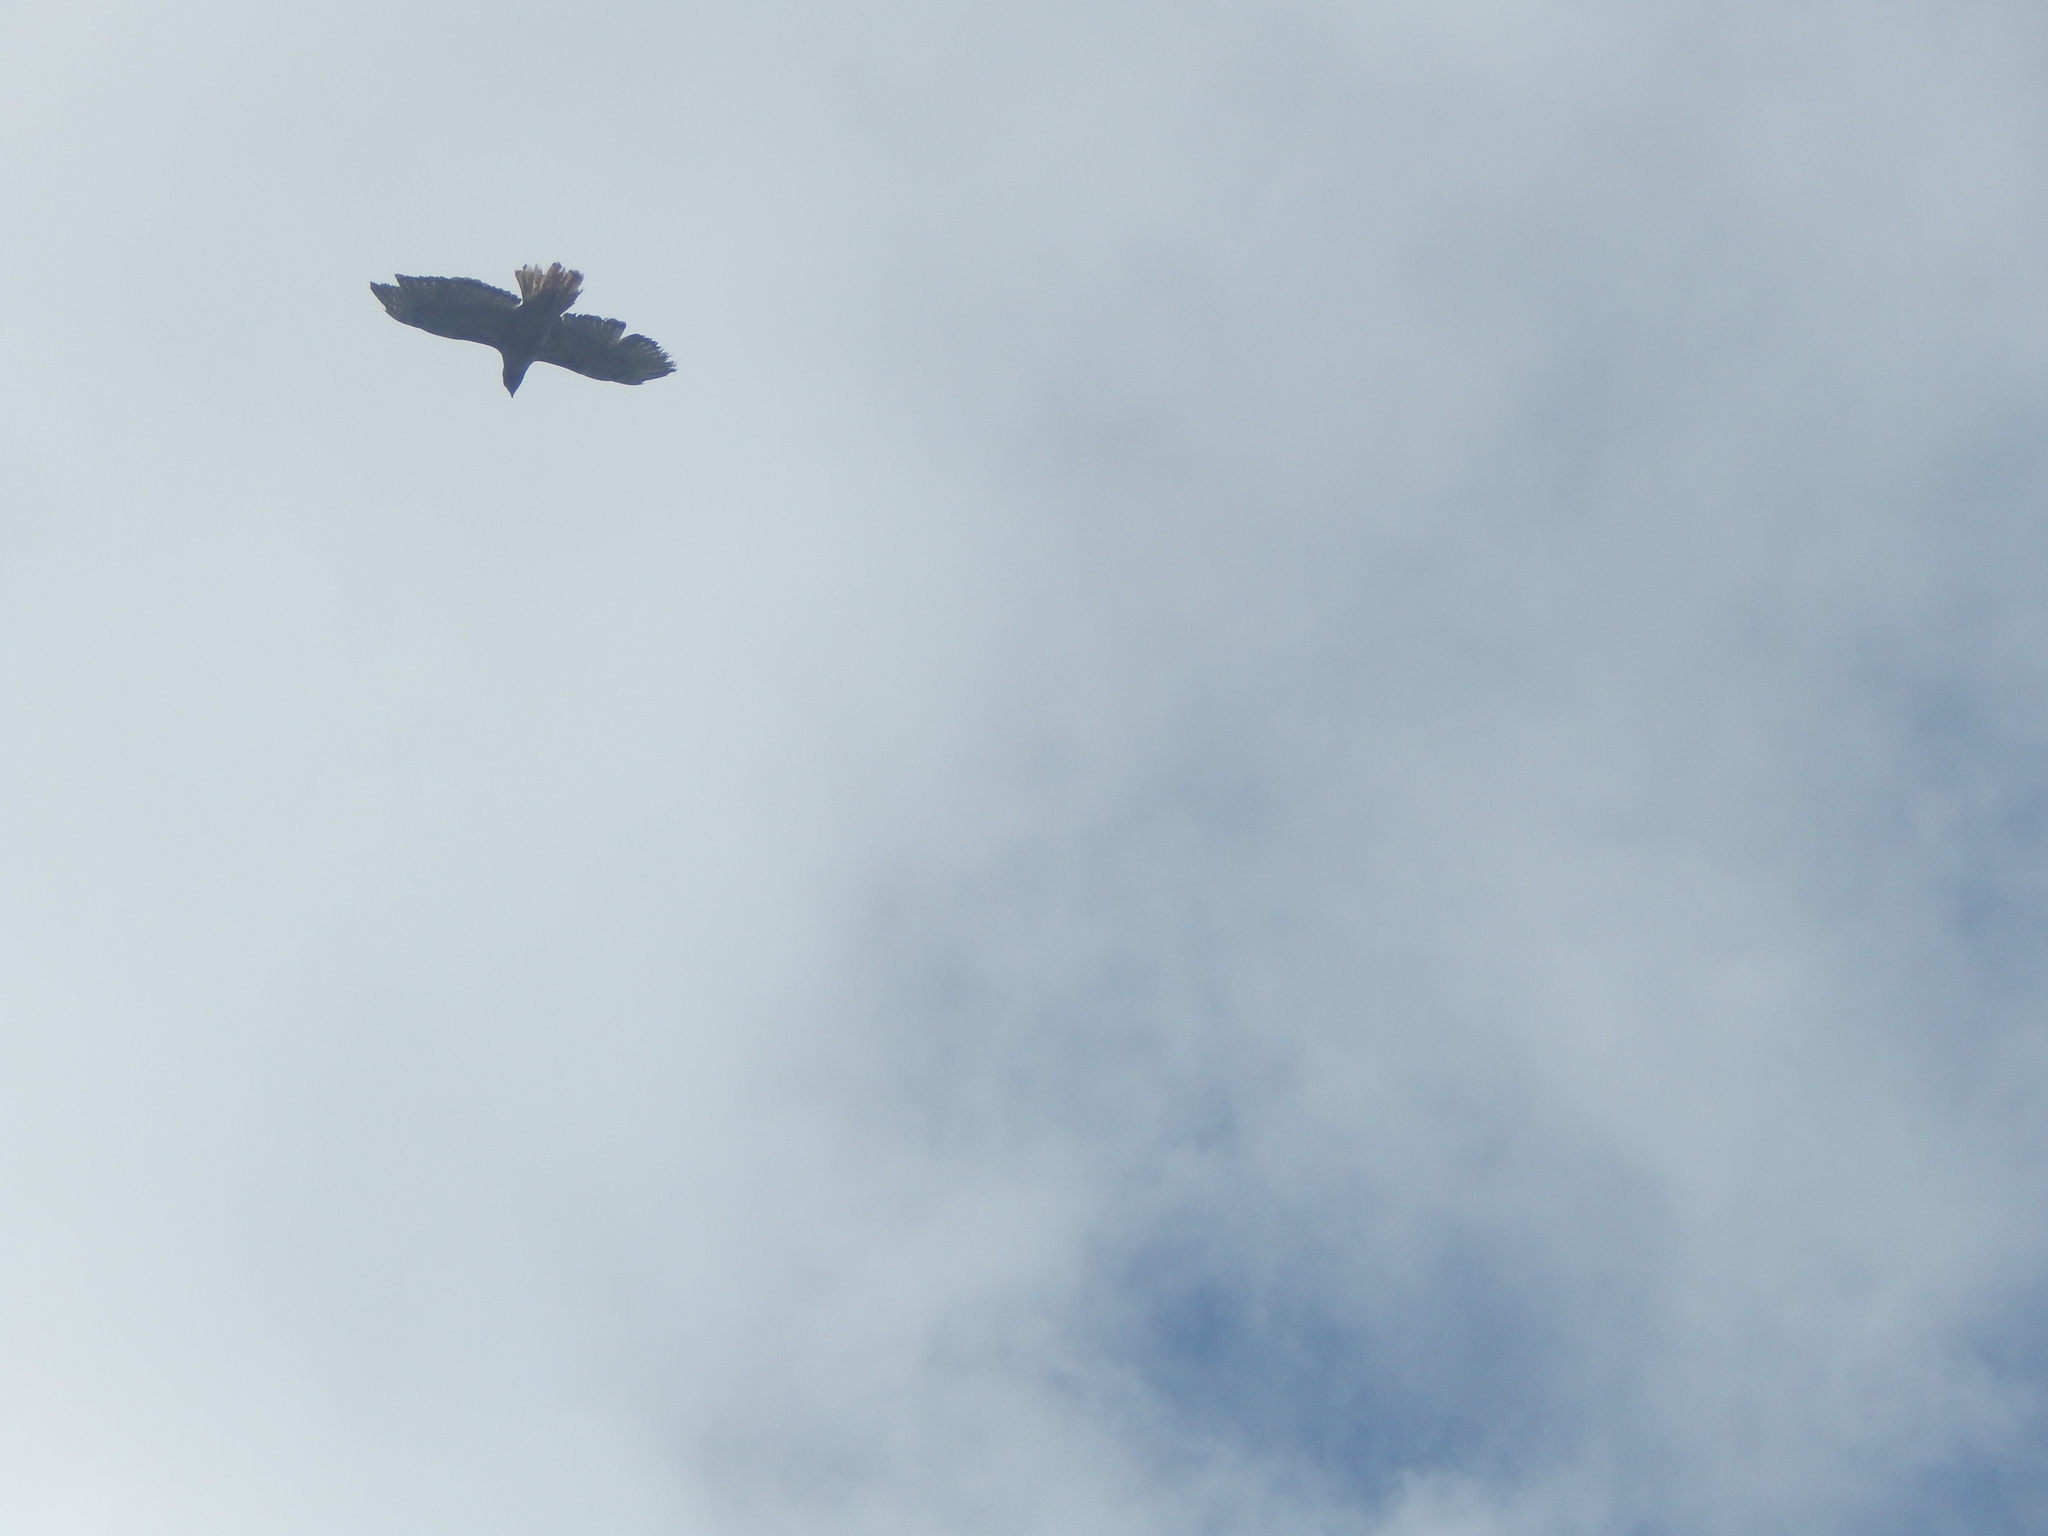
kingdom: Animalia
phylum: Chordata
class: Aves
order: Accipitriformes
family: Accipitridae
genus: Buteo
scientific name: Buteo jamaicensis
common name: Red-tailed hawk
